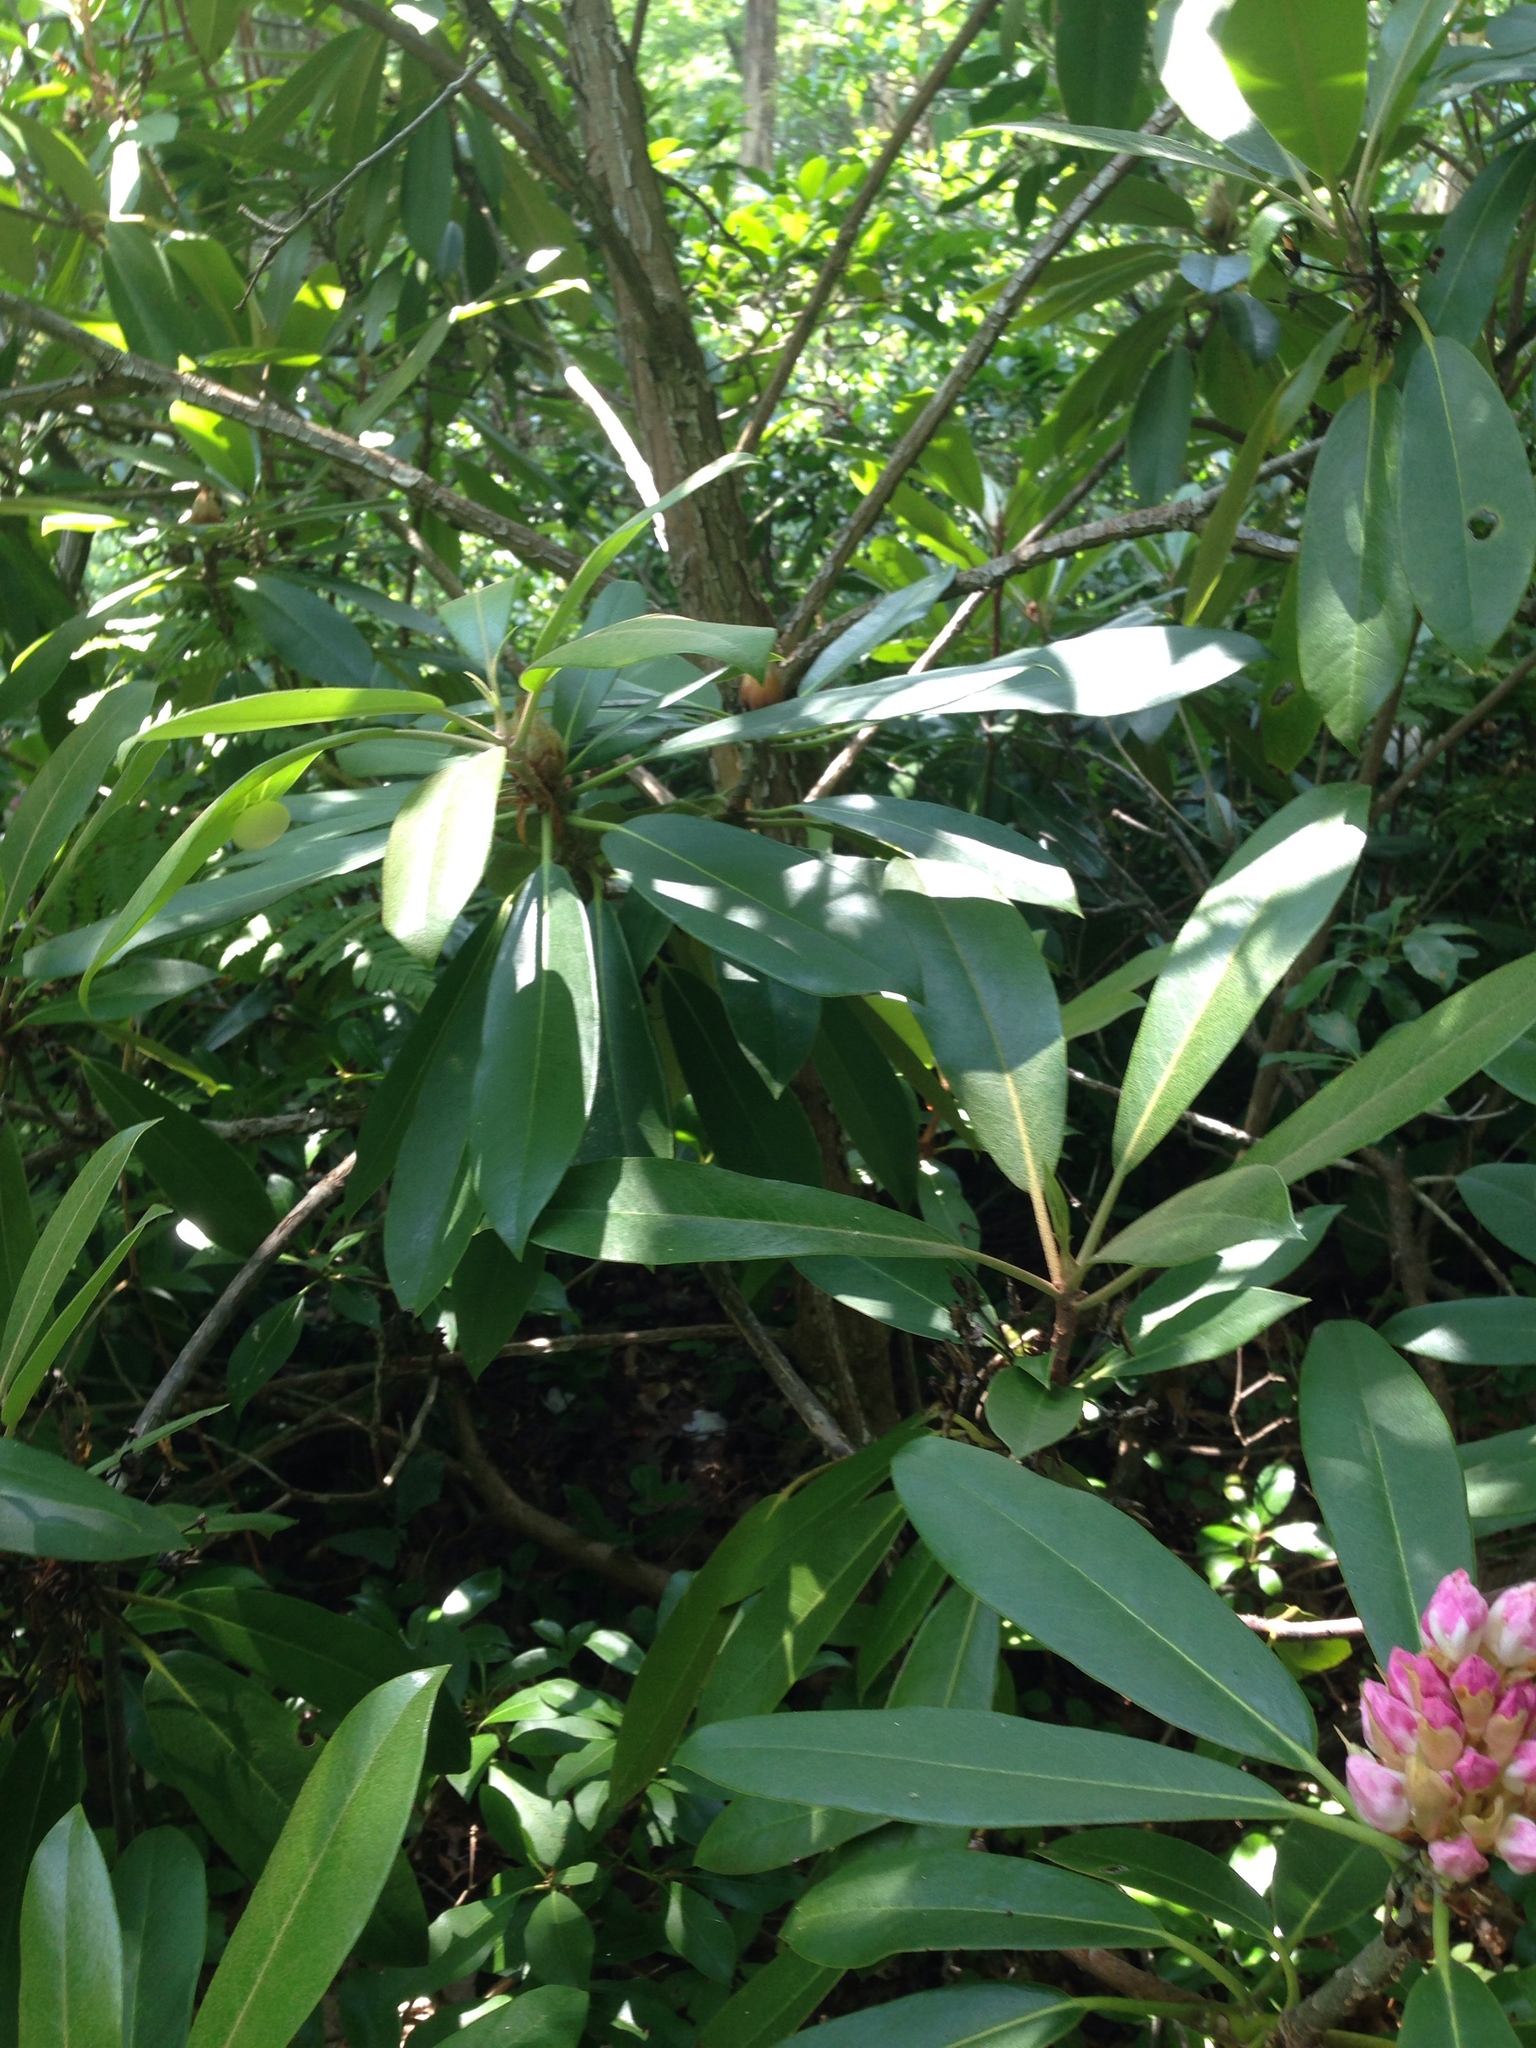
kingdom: Plantae
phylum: Tracheophyta
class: Magnoliopsida
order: Ericales
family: Ericaceae
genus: Rhododendron
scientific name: Rhododendron maximum
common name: Great rhododendron
